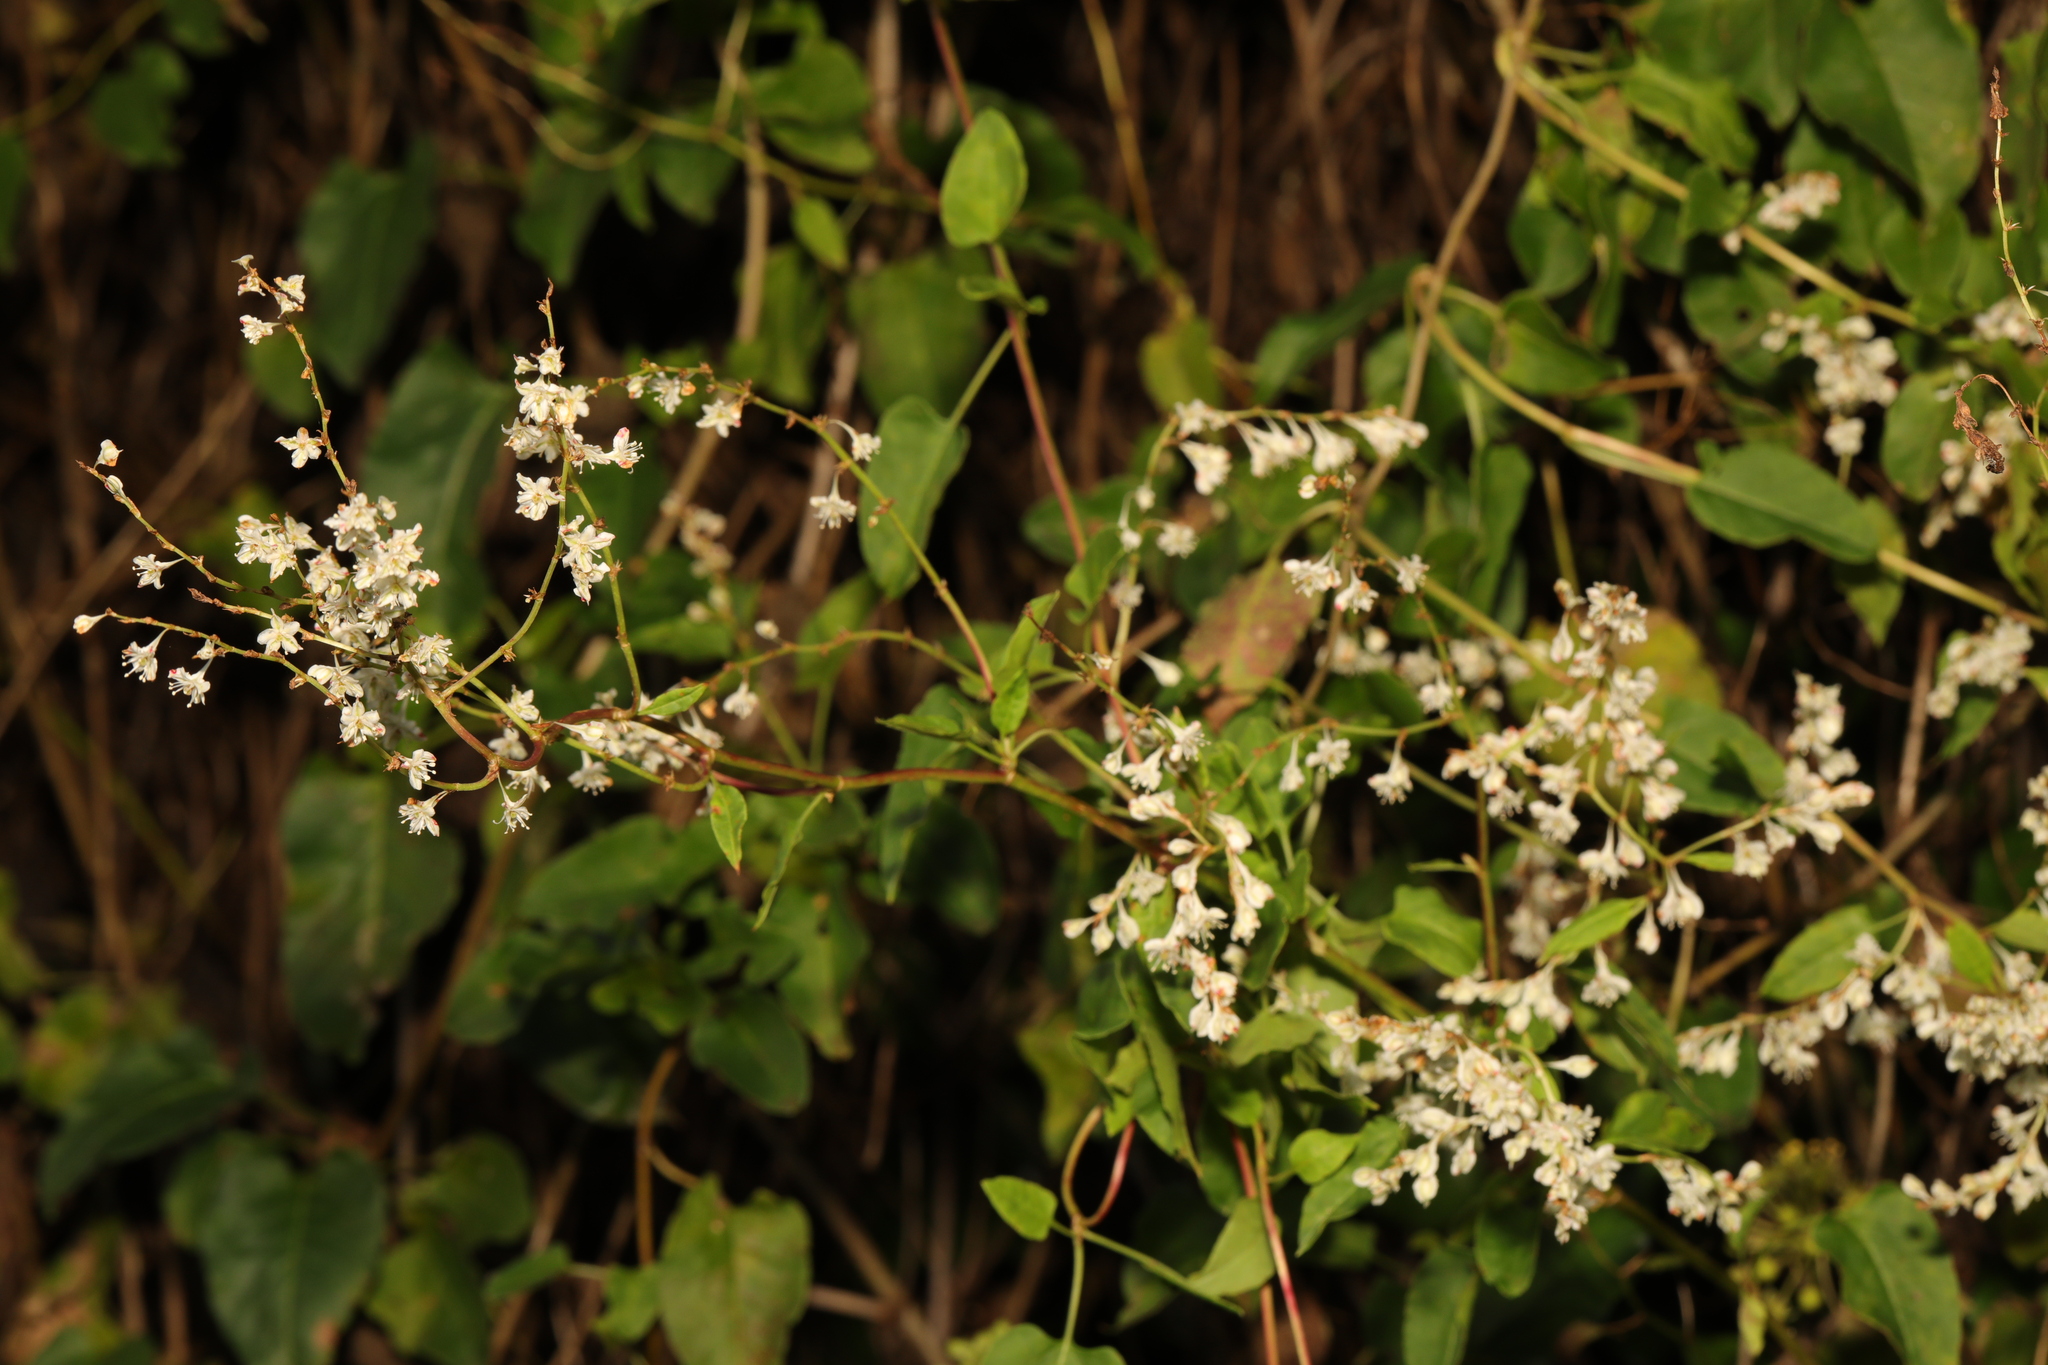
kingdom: Plantae
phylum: Tracheophyta
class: Magnoliopsida
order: Caryophyllales
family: Polygonaceae
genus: Fallopia
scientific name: Fallopia baldschuanica
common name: Russian-vine
